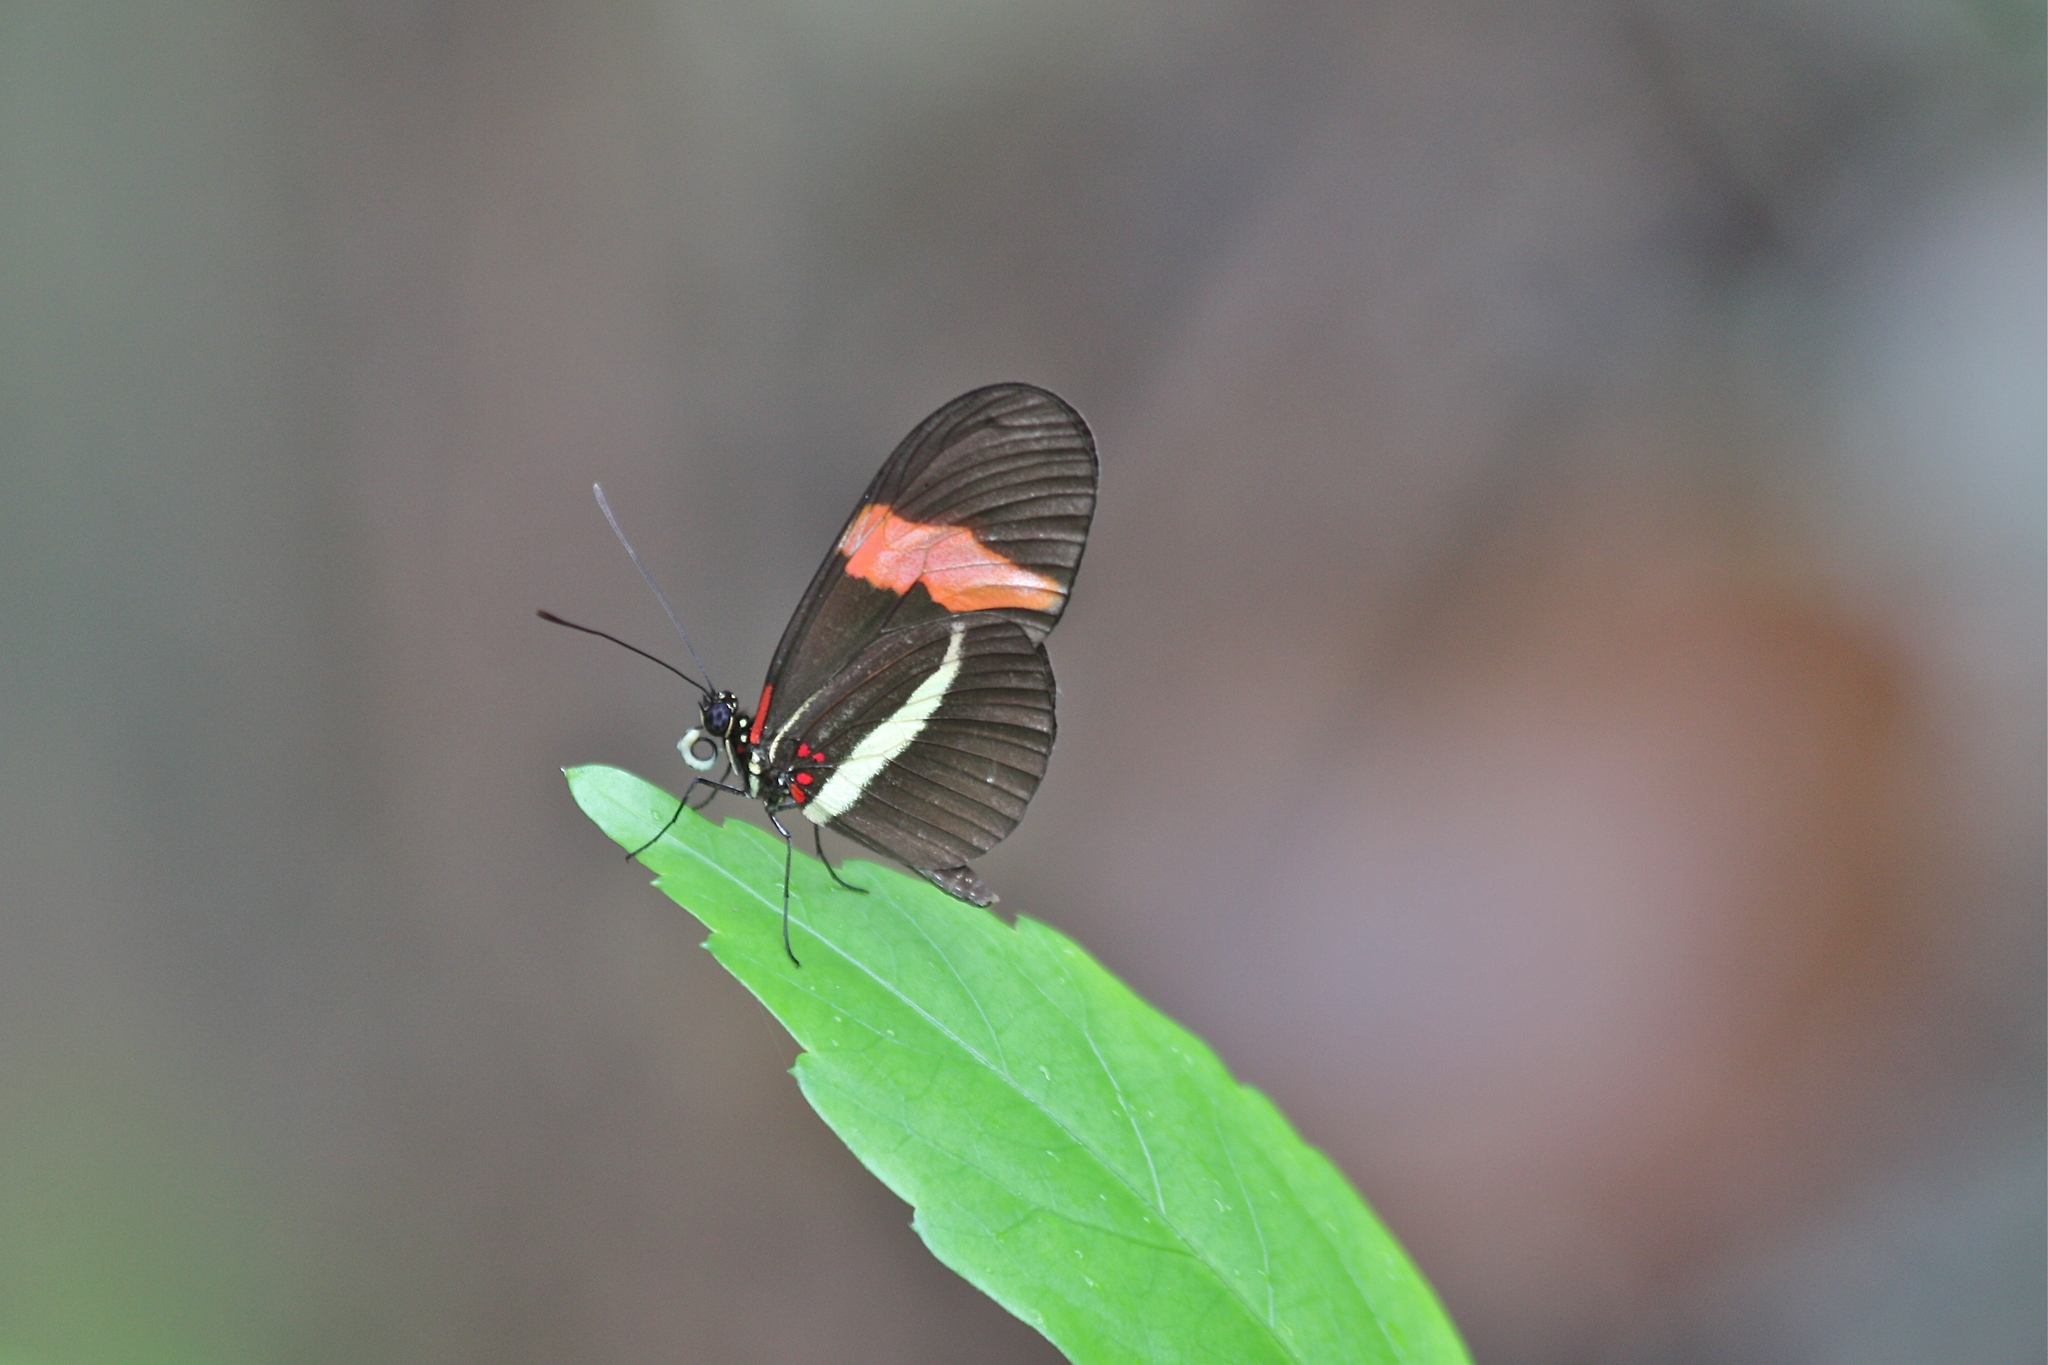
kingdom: Animalia
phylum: Arthropoda
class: Insecta
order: Lepidoptera
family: Nymphalidae
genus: Tirumala
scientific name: Tirumala petiverana
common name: Blue monarch
